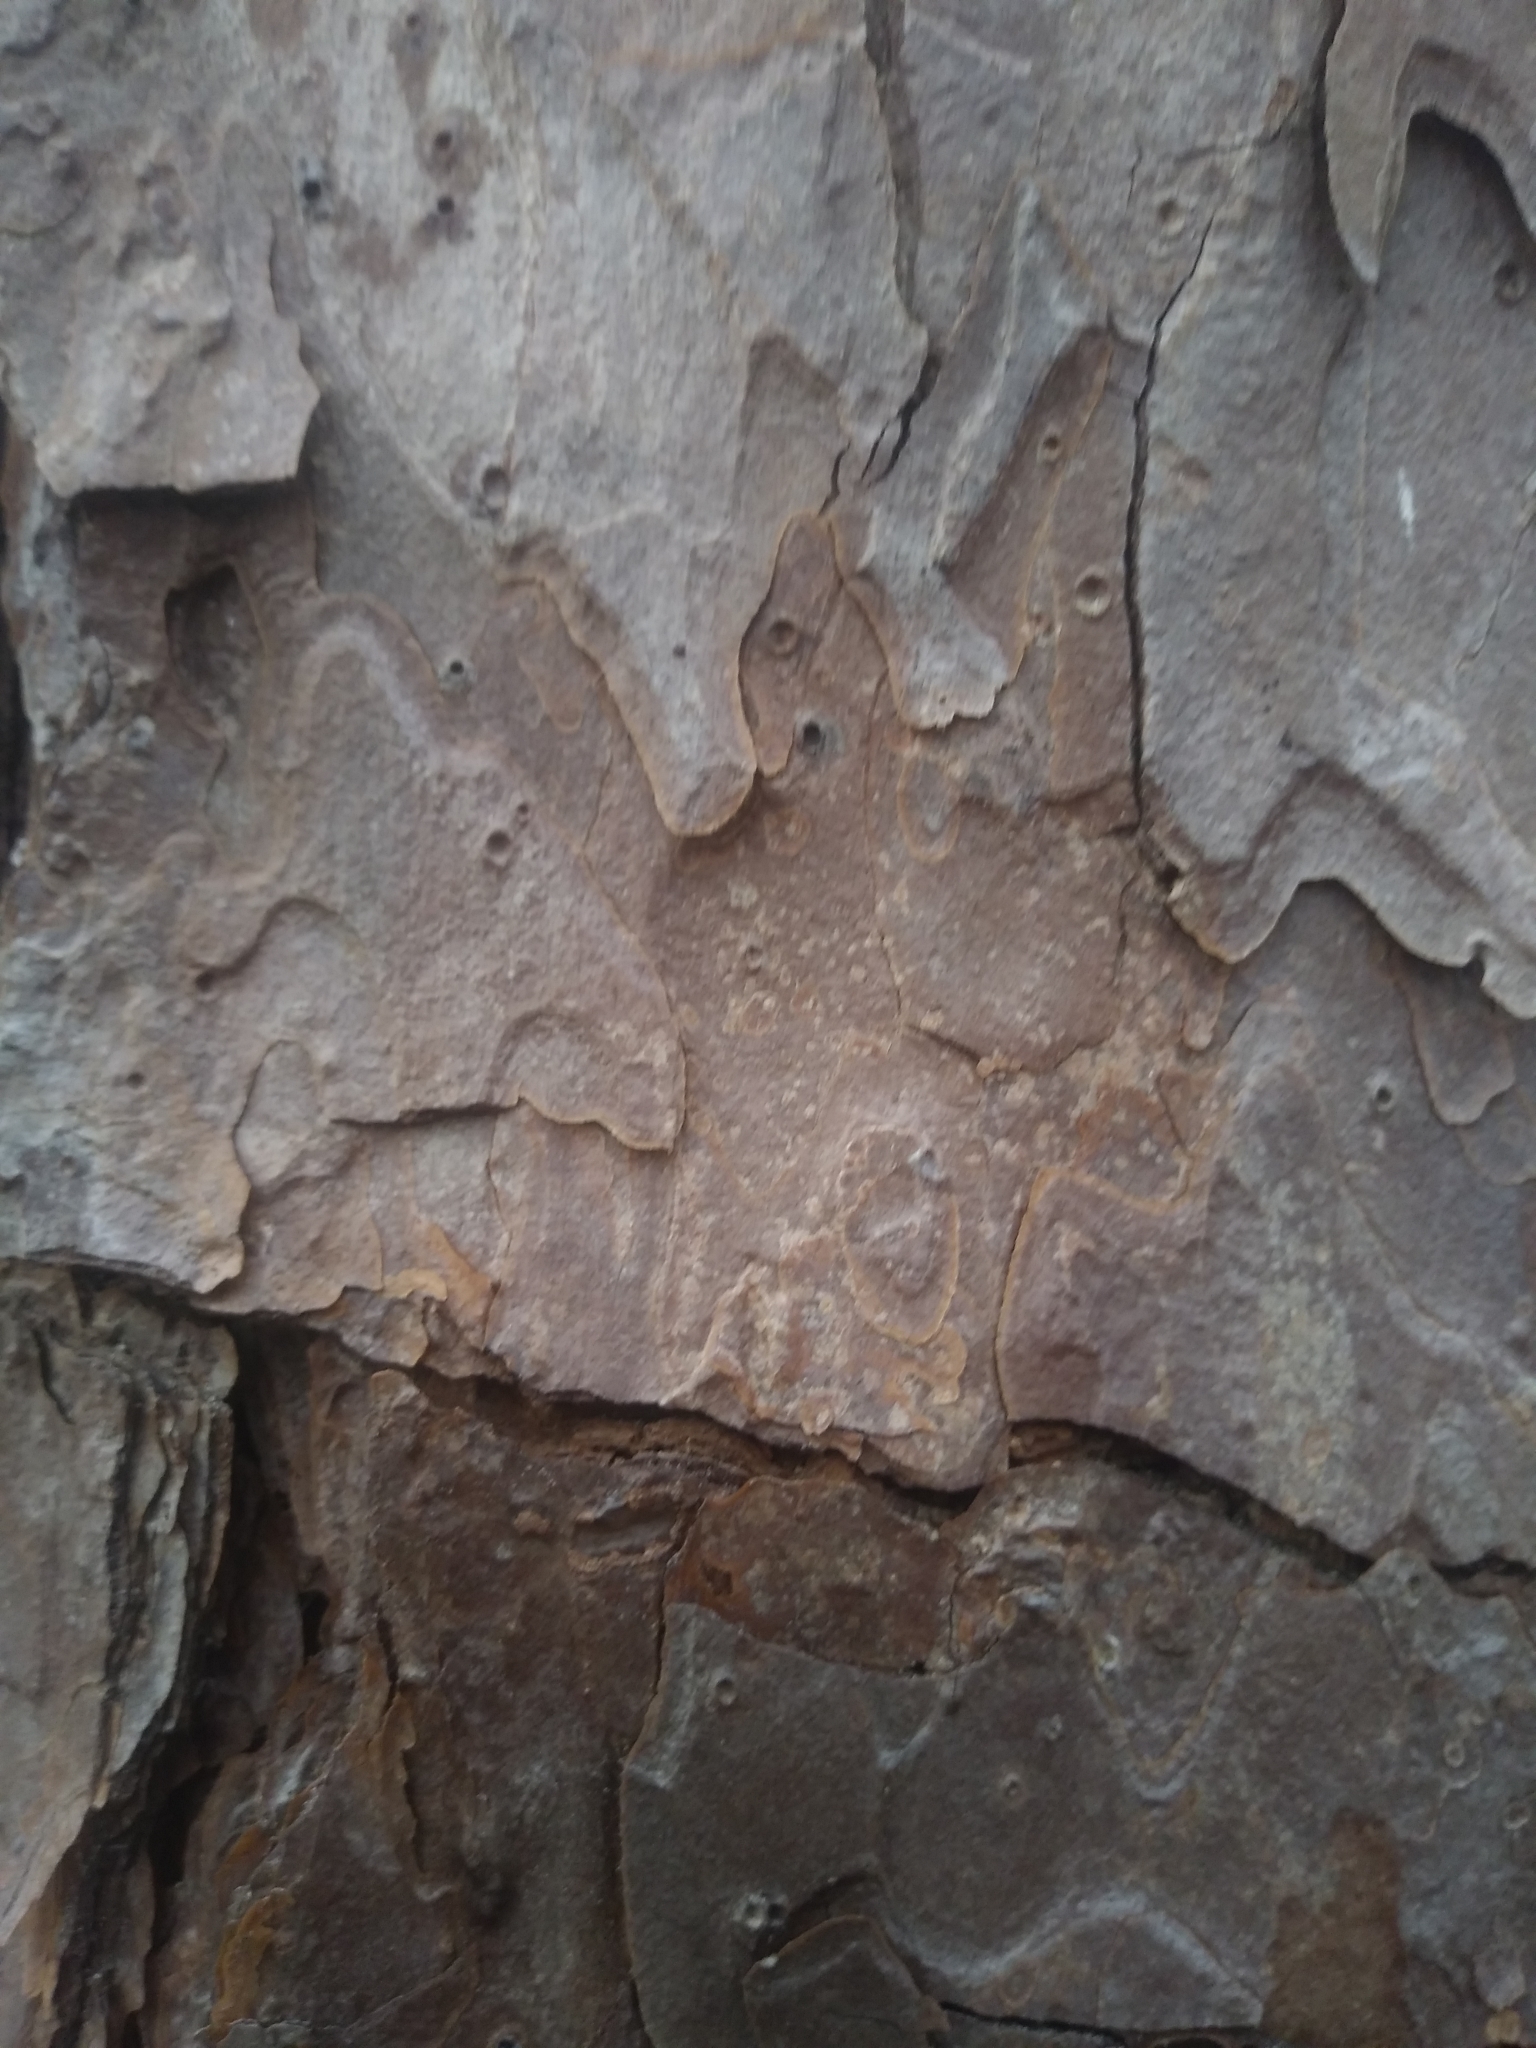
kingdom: Plantae
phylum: Tracheophyta
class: Pinopsida
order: Pinales
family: Pinaceae
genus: Pinus
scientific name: Pinus echinata
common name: Shortleaf pine
